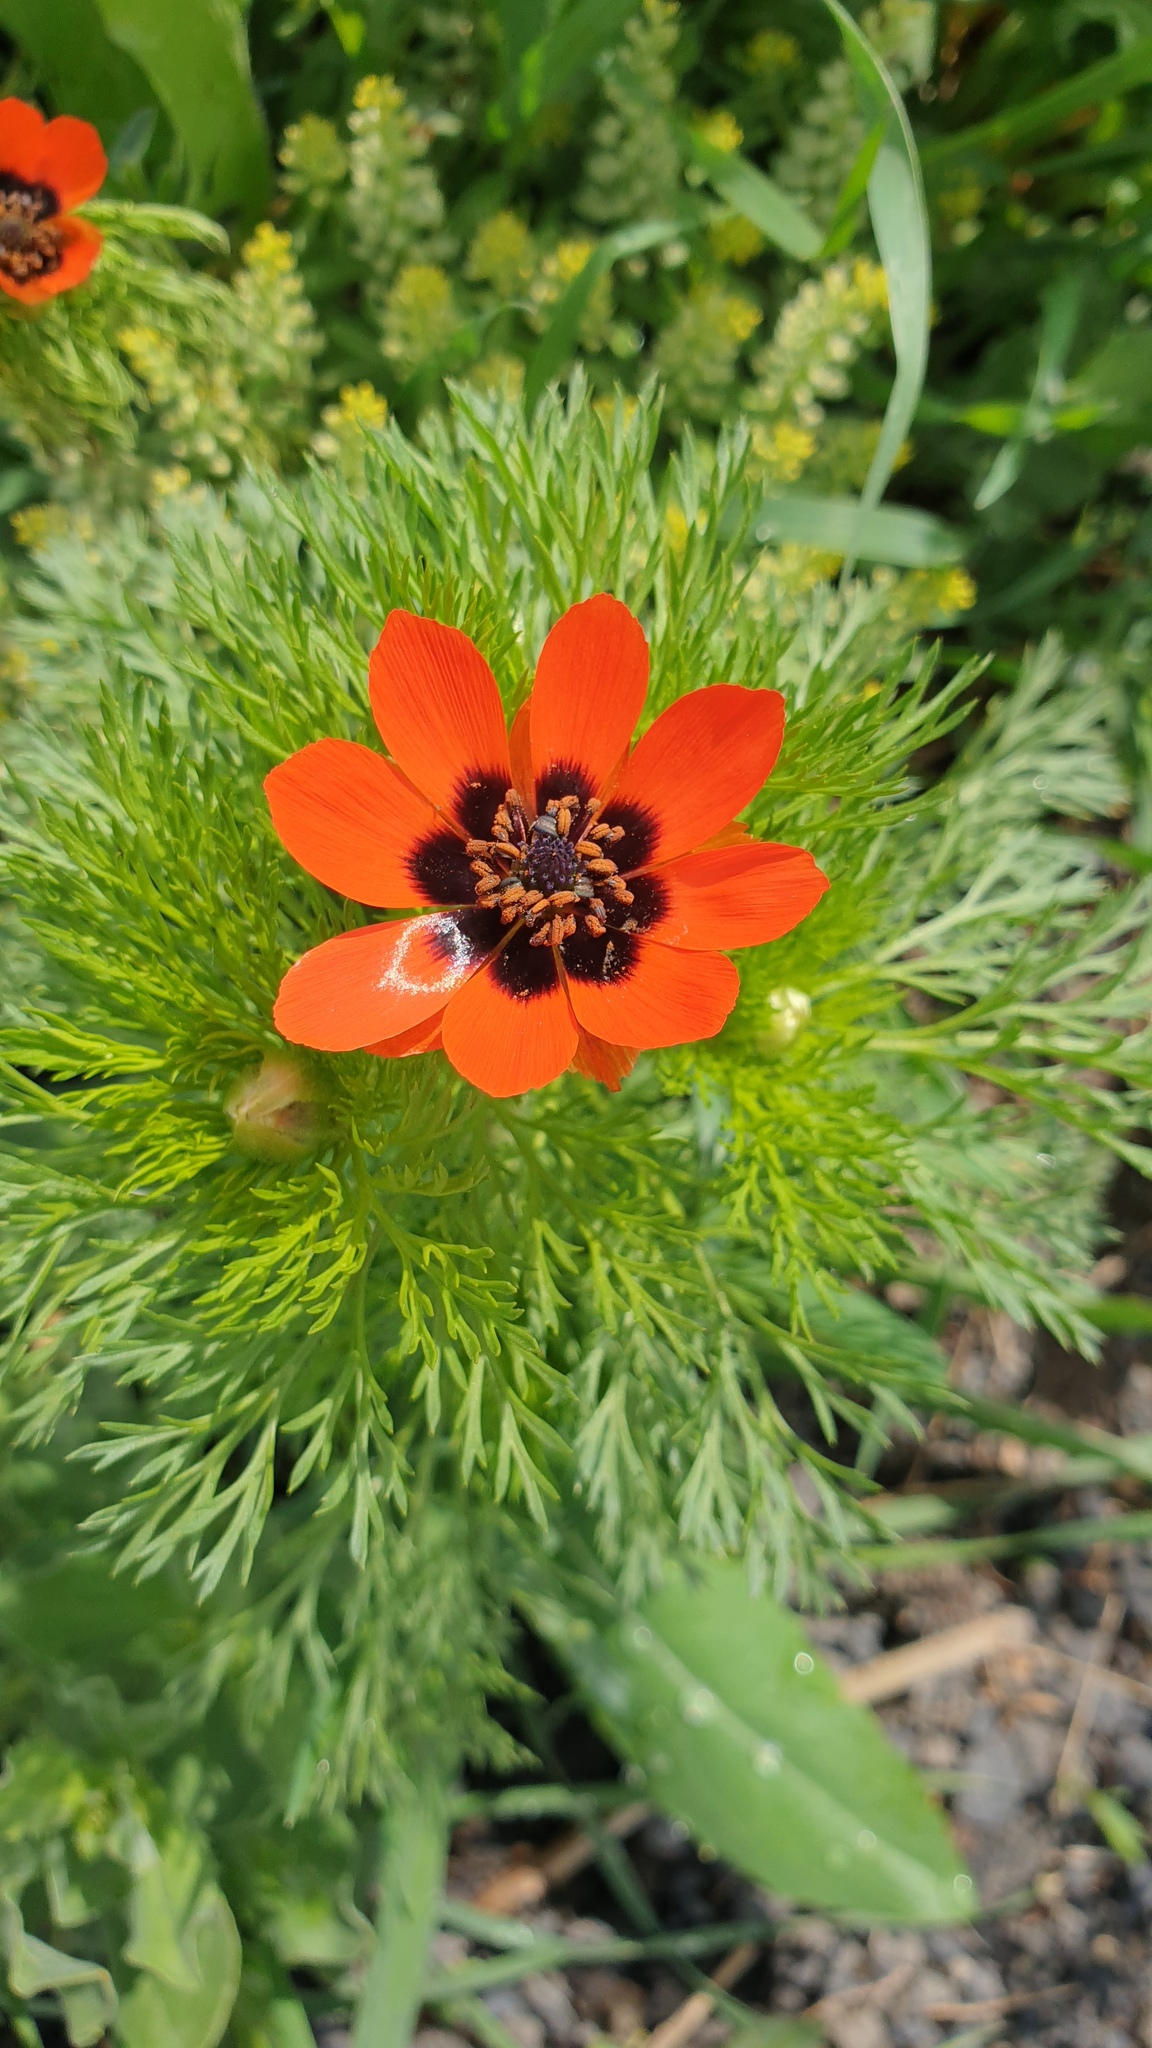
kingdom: Plantae
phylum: Tracheophyta
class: Magnoliopsida
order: Ranunculales
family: Ranunculaceae
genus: Adonis
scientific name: Adonis aestivalis
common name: Summer pheasant's-eye
